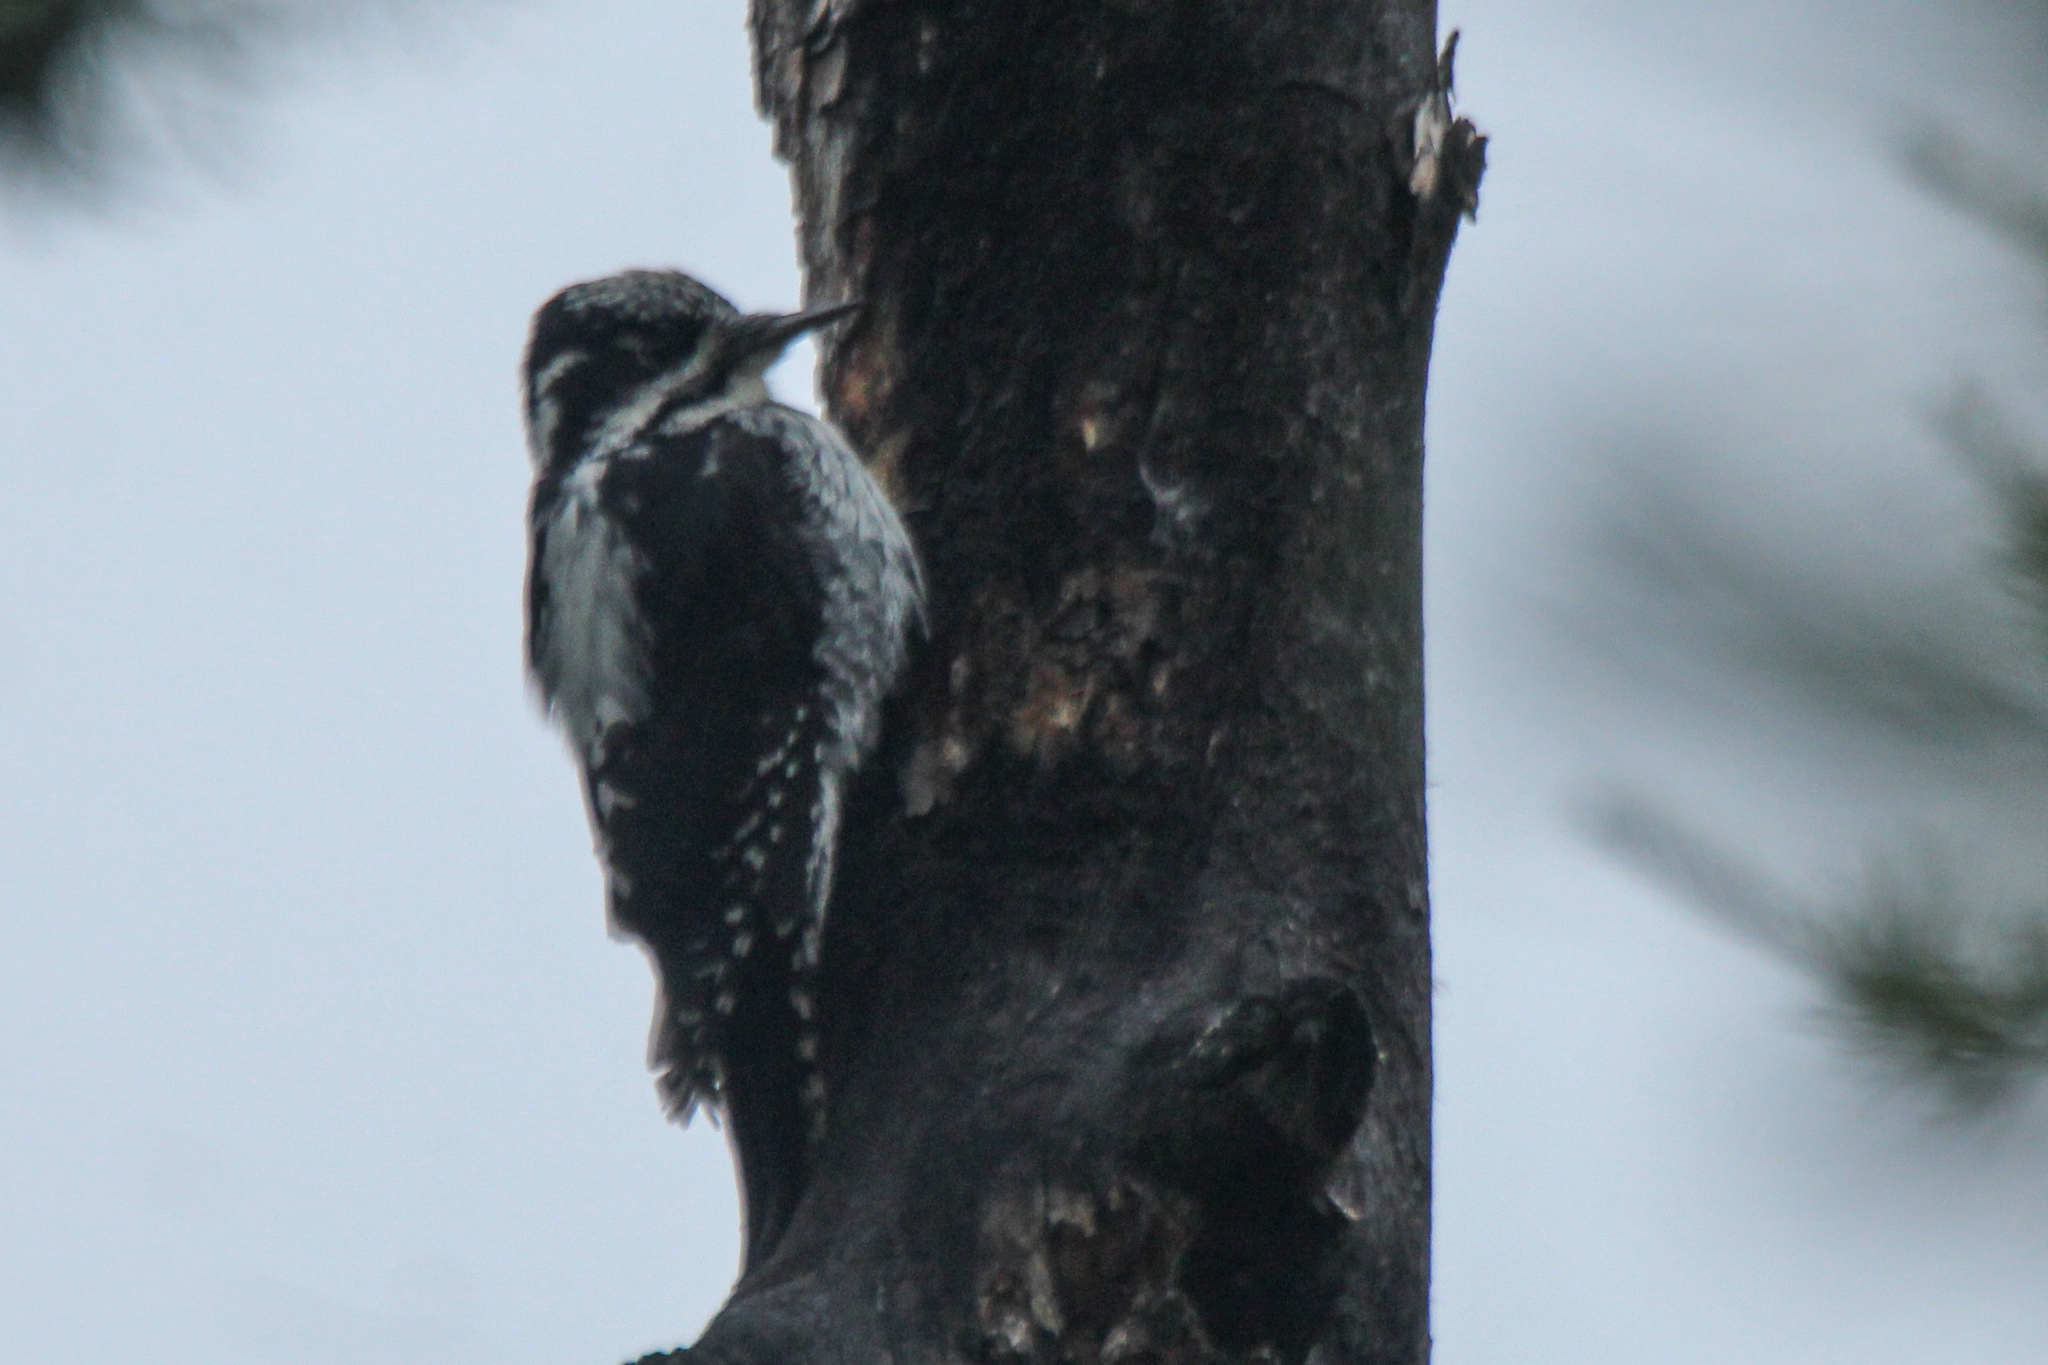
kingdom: Animalia
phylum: Chordata
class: Aves
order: Piciformes
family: Picidae
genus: Picoides
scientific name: Picoides tridactylus
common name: Eurasian three-toed woodpecker
